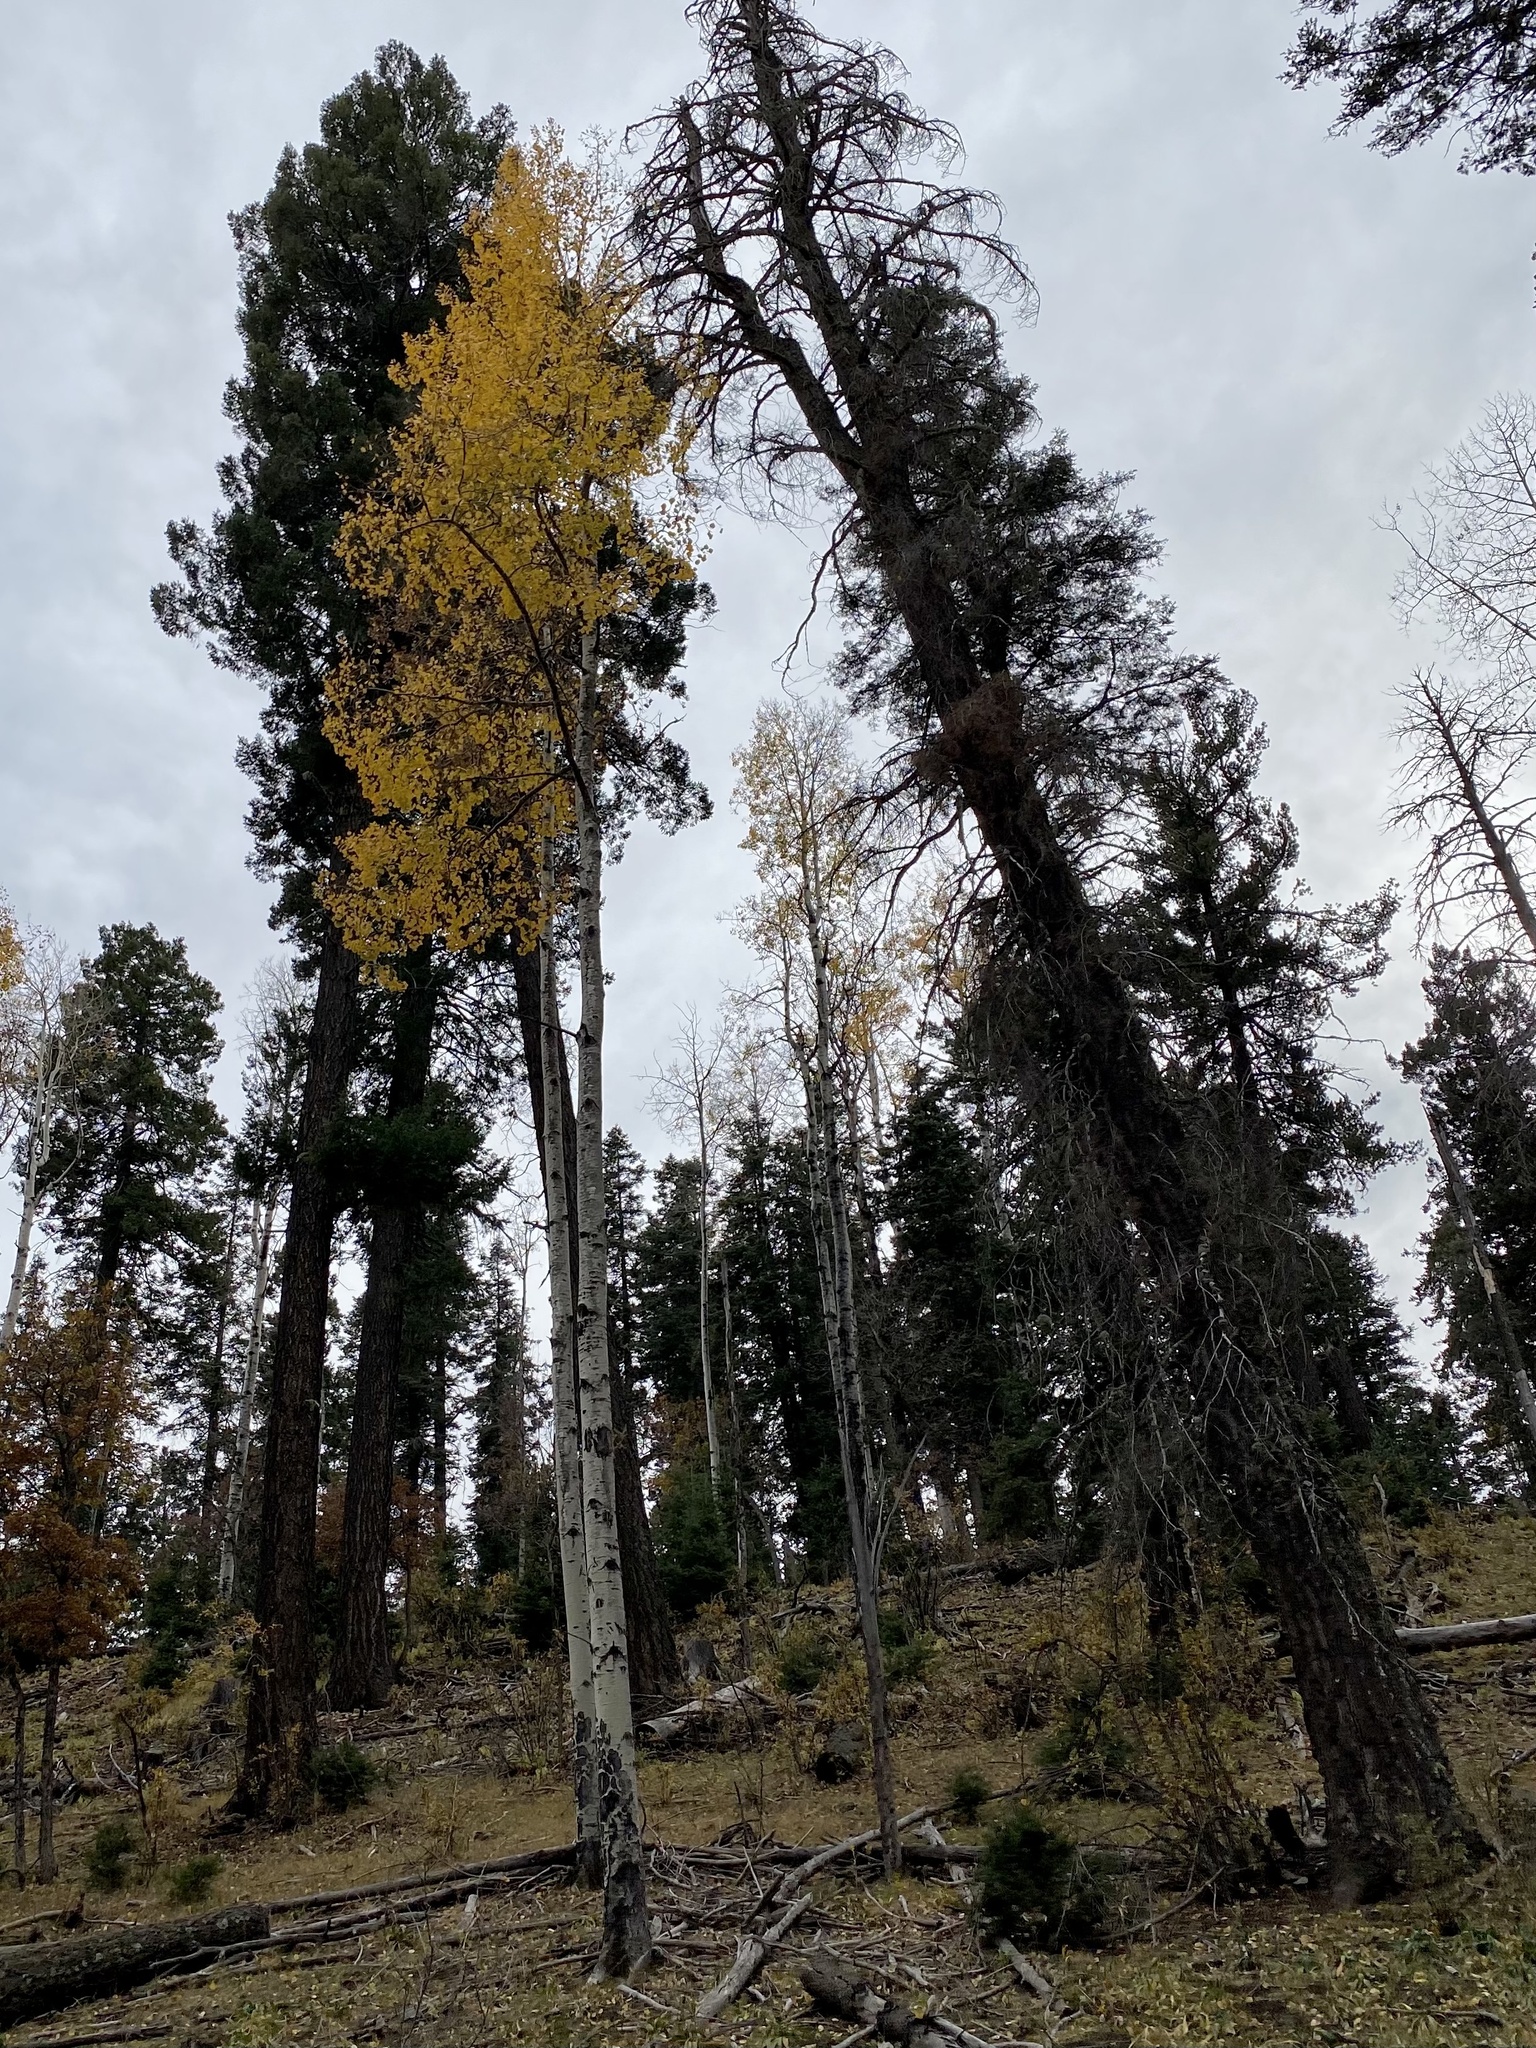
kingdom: Plantae
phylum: Tracheophyta
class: Magnoliopsida
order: Malpighiales
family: Salicaceae
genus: Populus
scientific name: Populus tremuloides
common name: Quaking aspen
